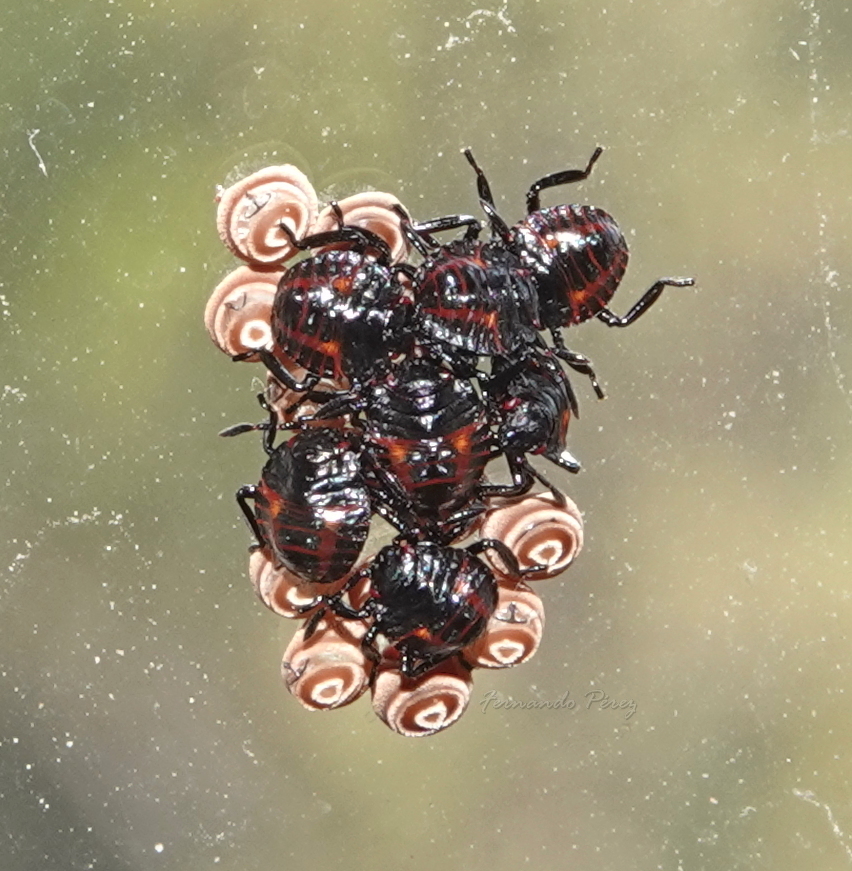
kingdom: Animalia
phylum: Arthropoda
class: Insecta
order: Hemiptera
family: Pentatomidae
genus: Pellaea
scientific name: Pellaea stictica
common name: Stink bug
